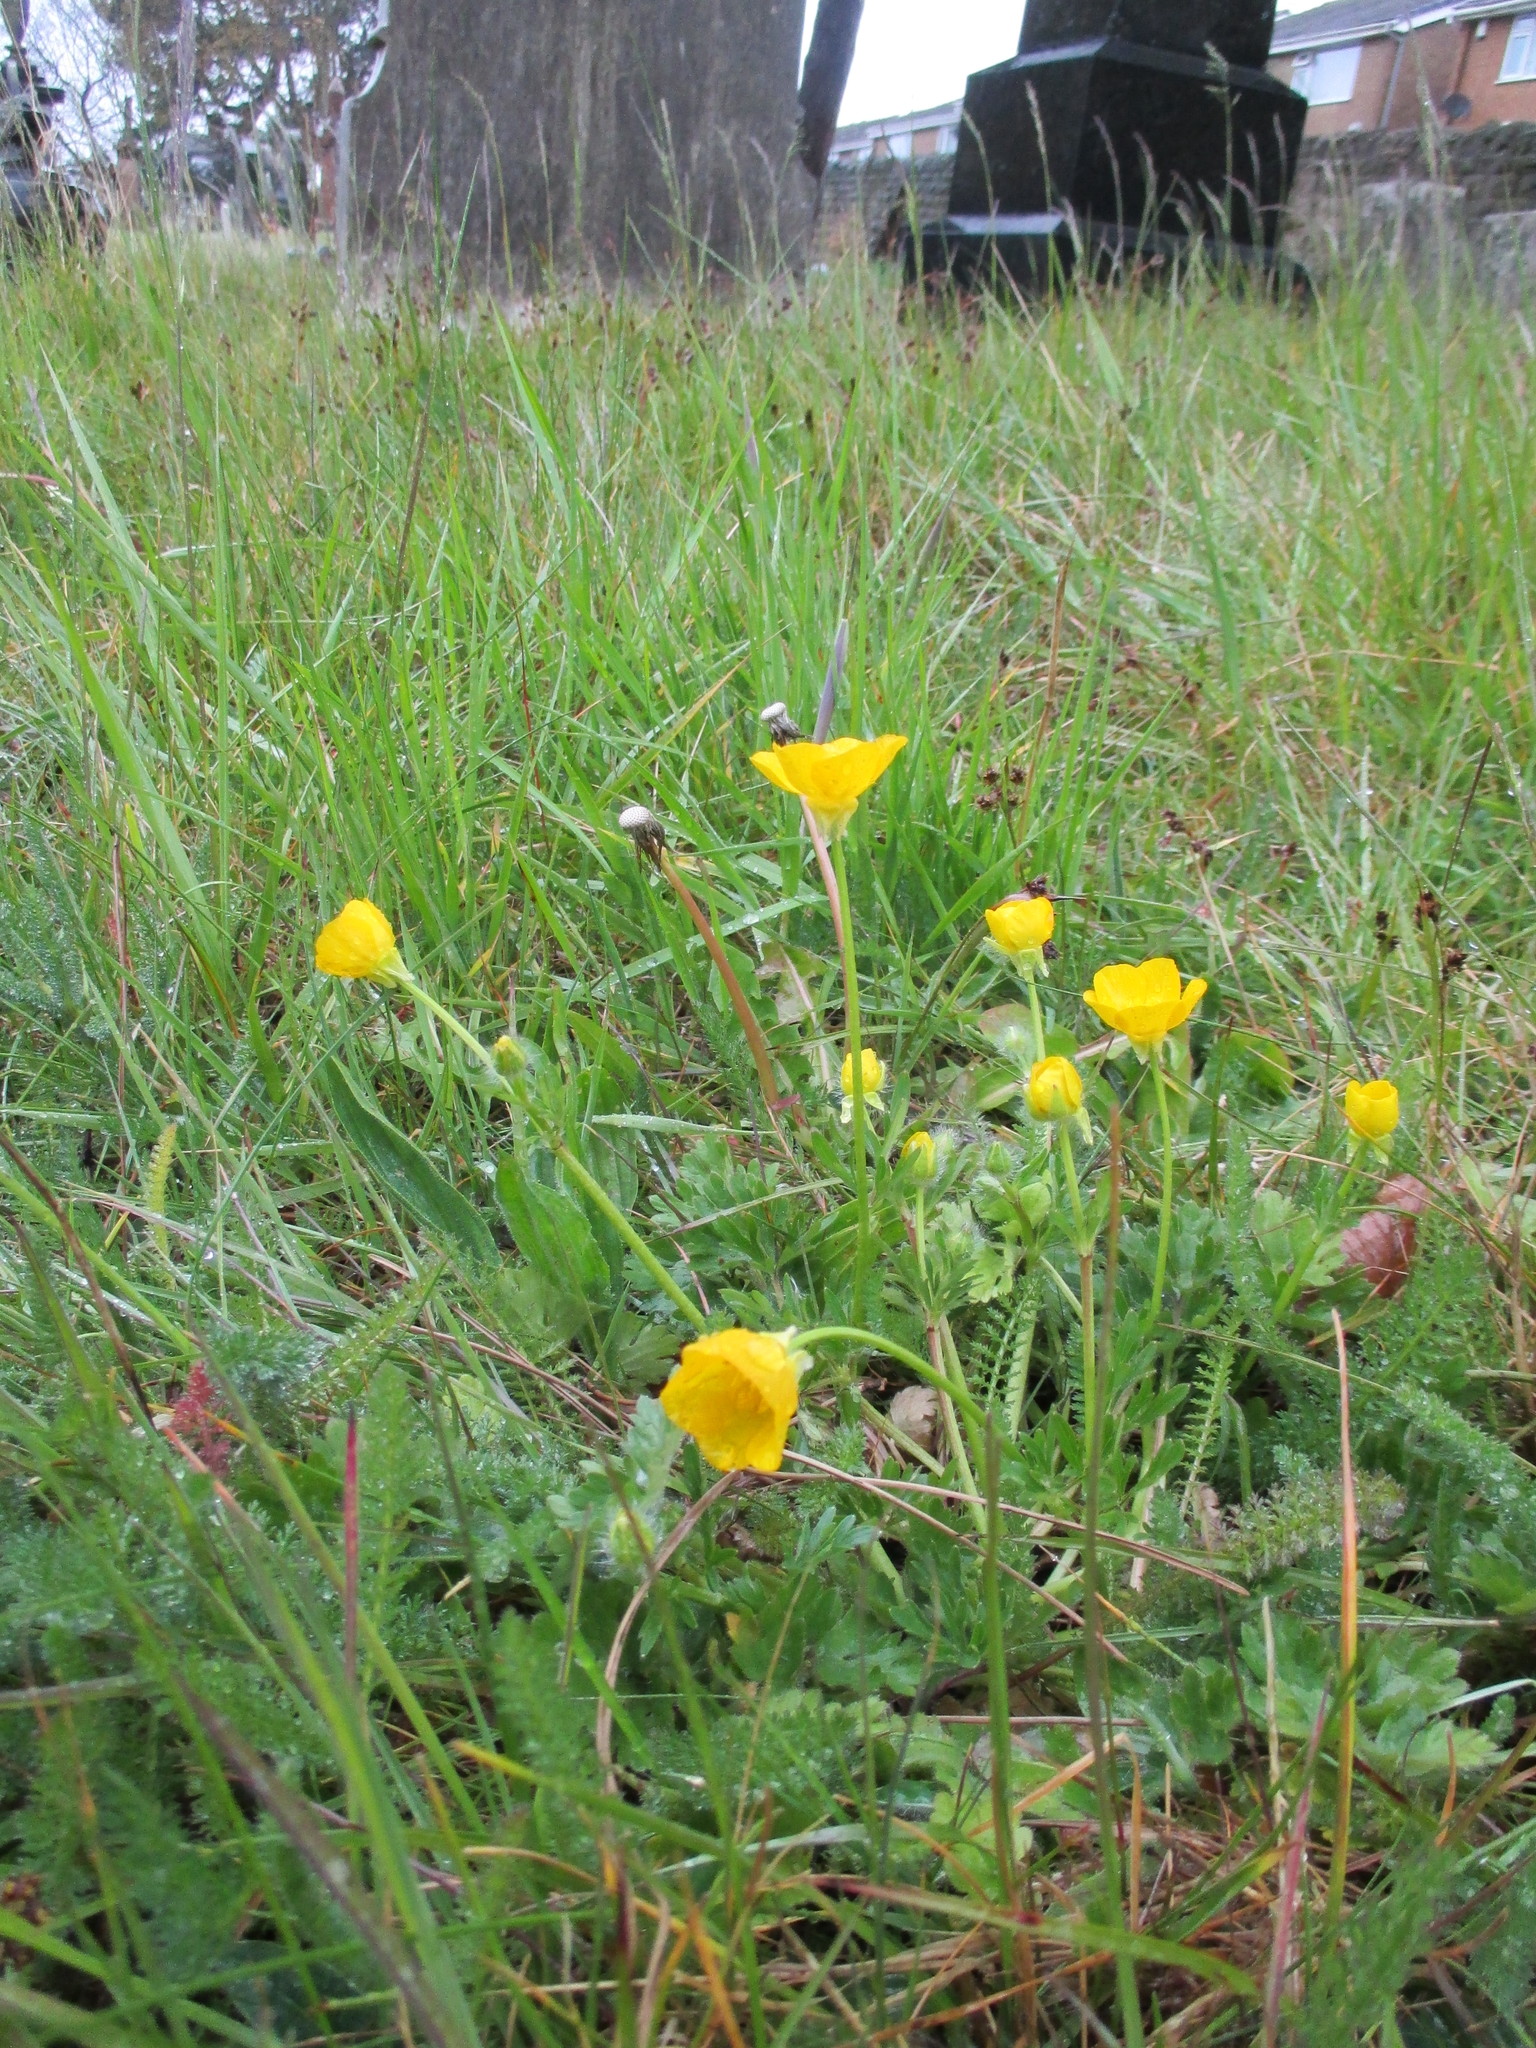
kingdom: Plantae
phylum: Tracheophyta
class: Magnoliopsida
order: Ranunculales
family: Ranunculaceae
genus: Ranunculus
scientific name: Ranunculus bulbosus
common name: Bulbous buttercup
